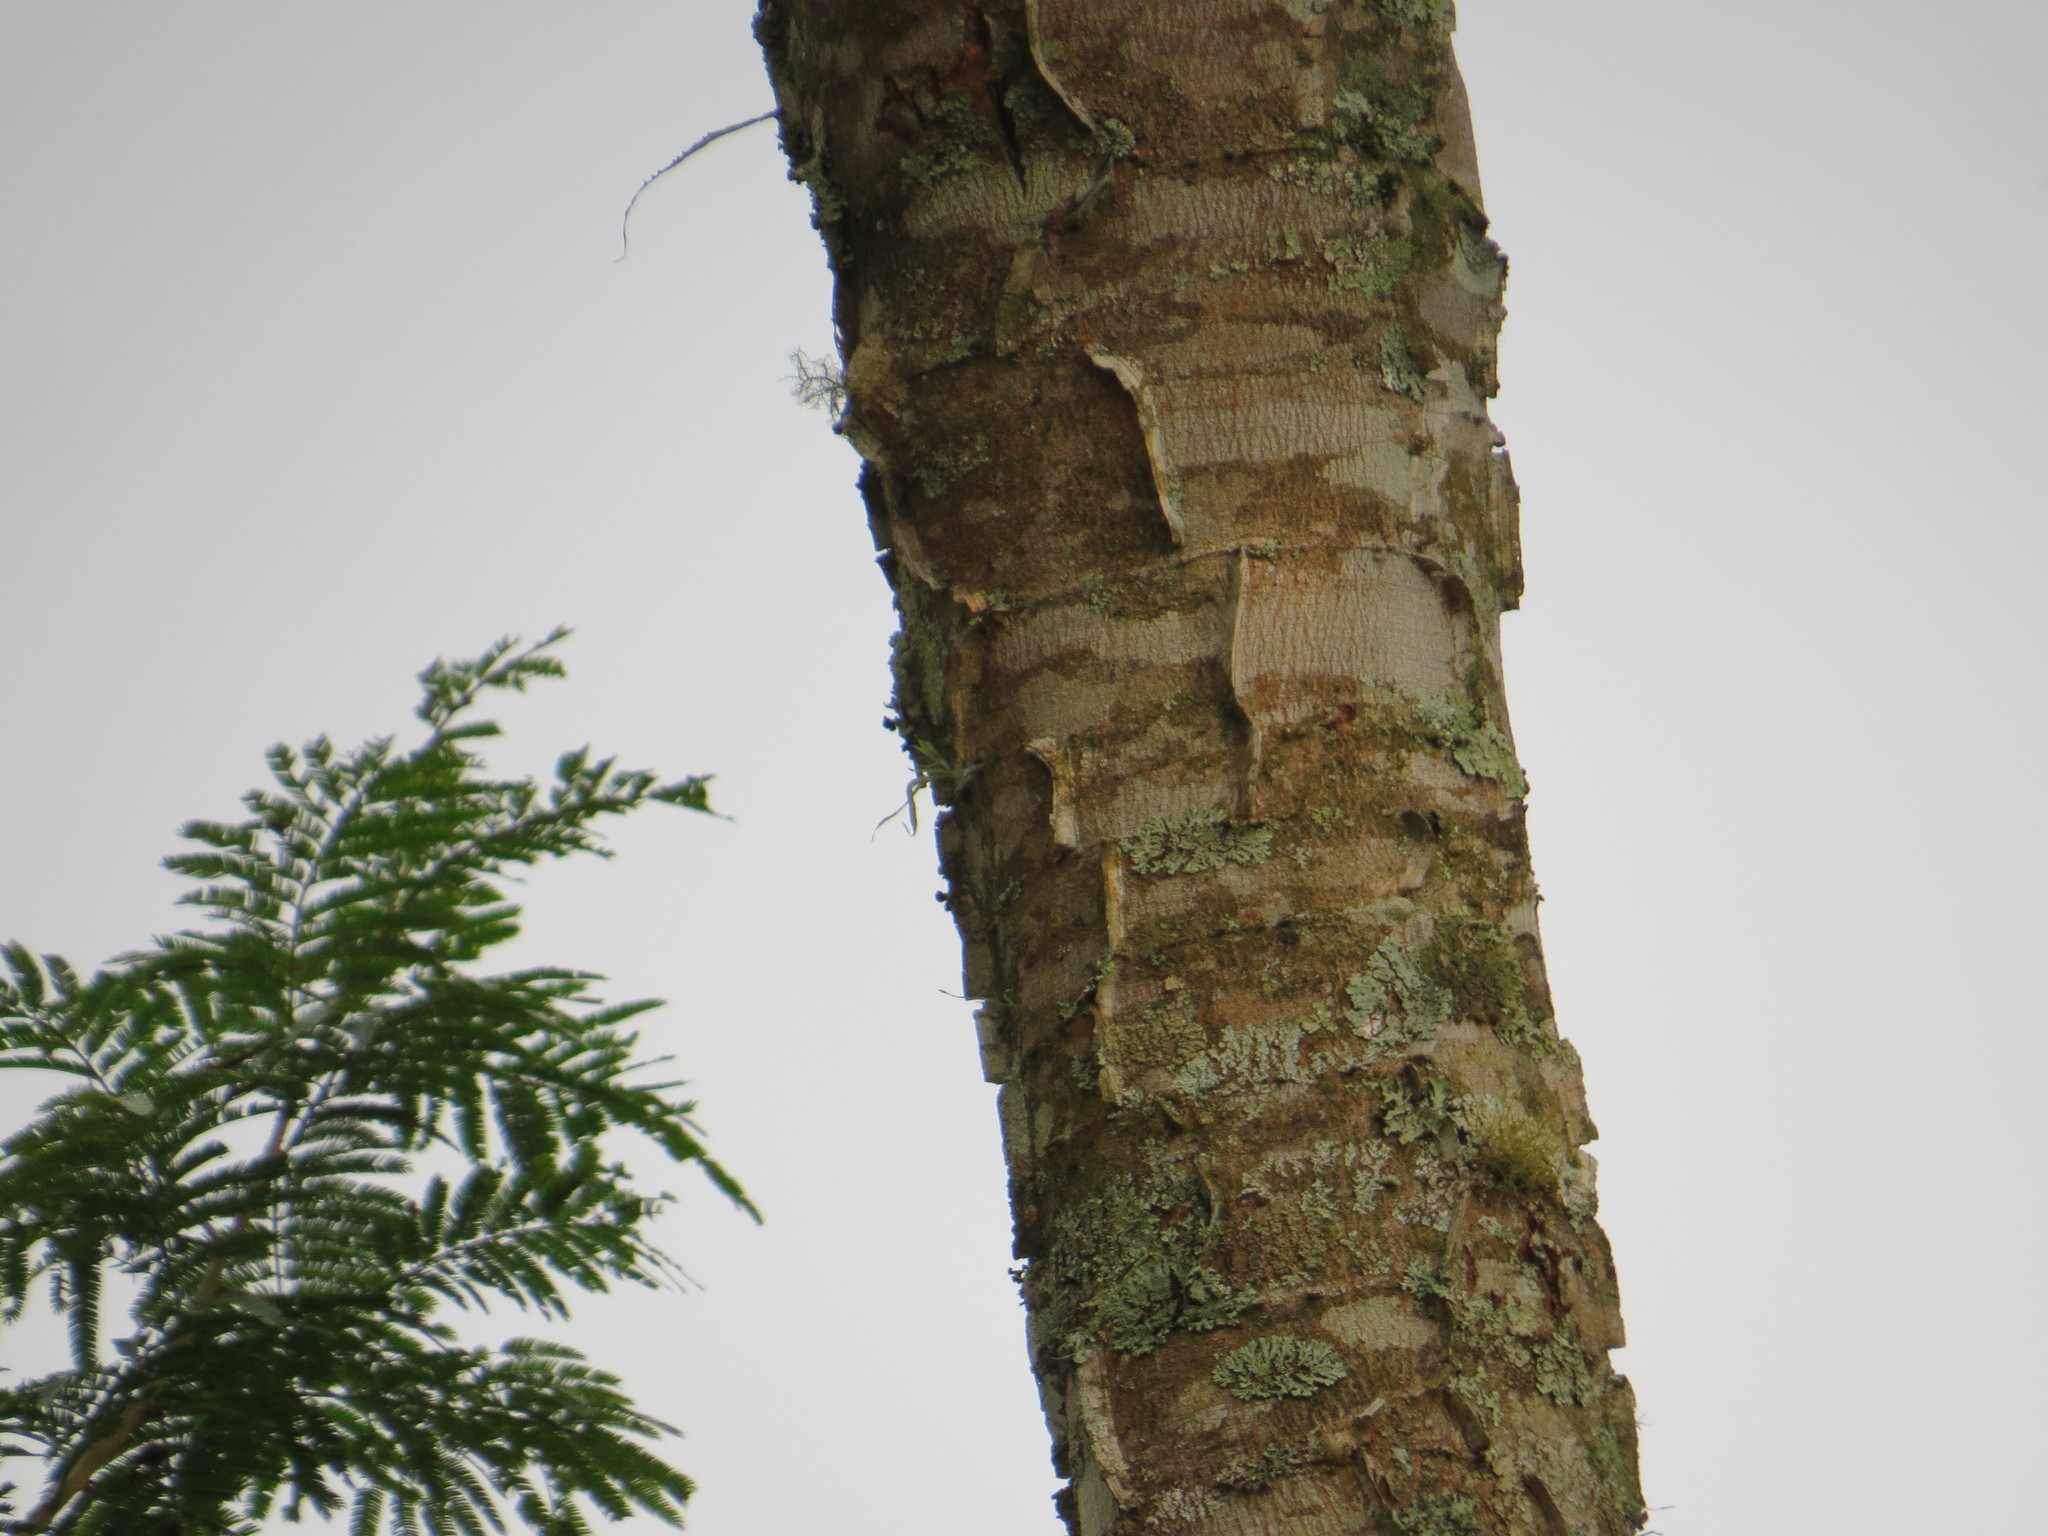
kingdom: Plantae
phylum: Tracheophyta
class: Magnoliopsida
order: Fabales
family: Fabaceae
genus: Piptadenia
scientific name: Piptadenia gonoacantha
